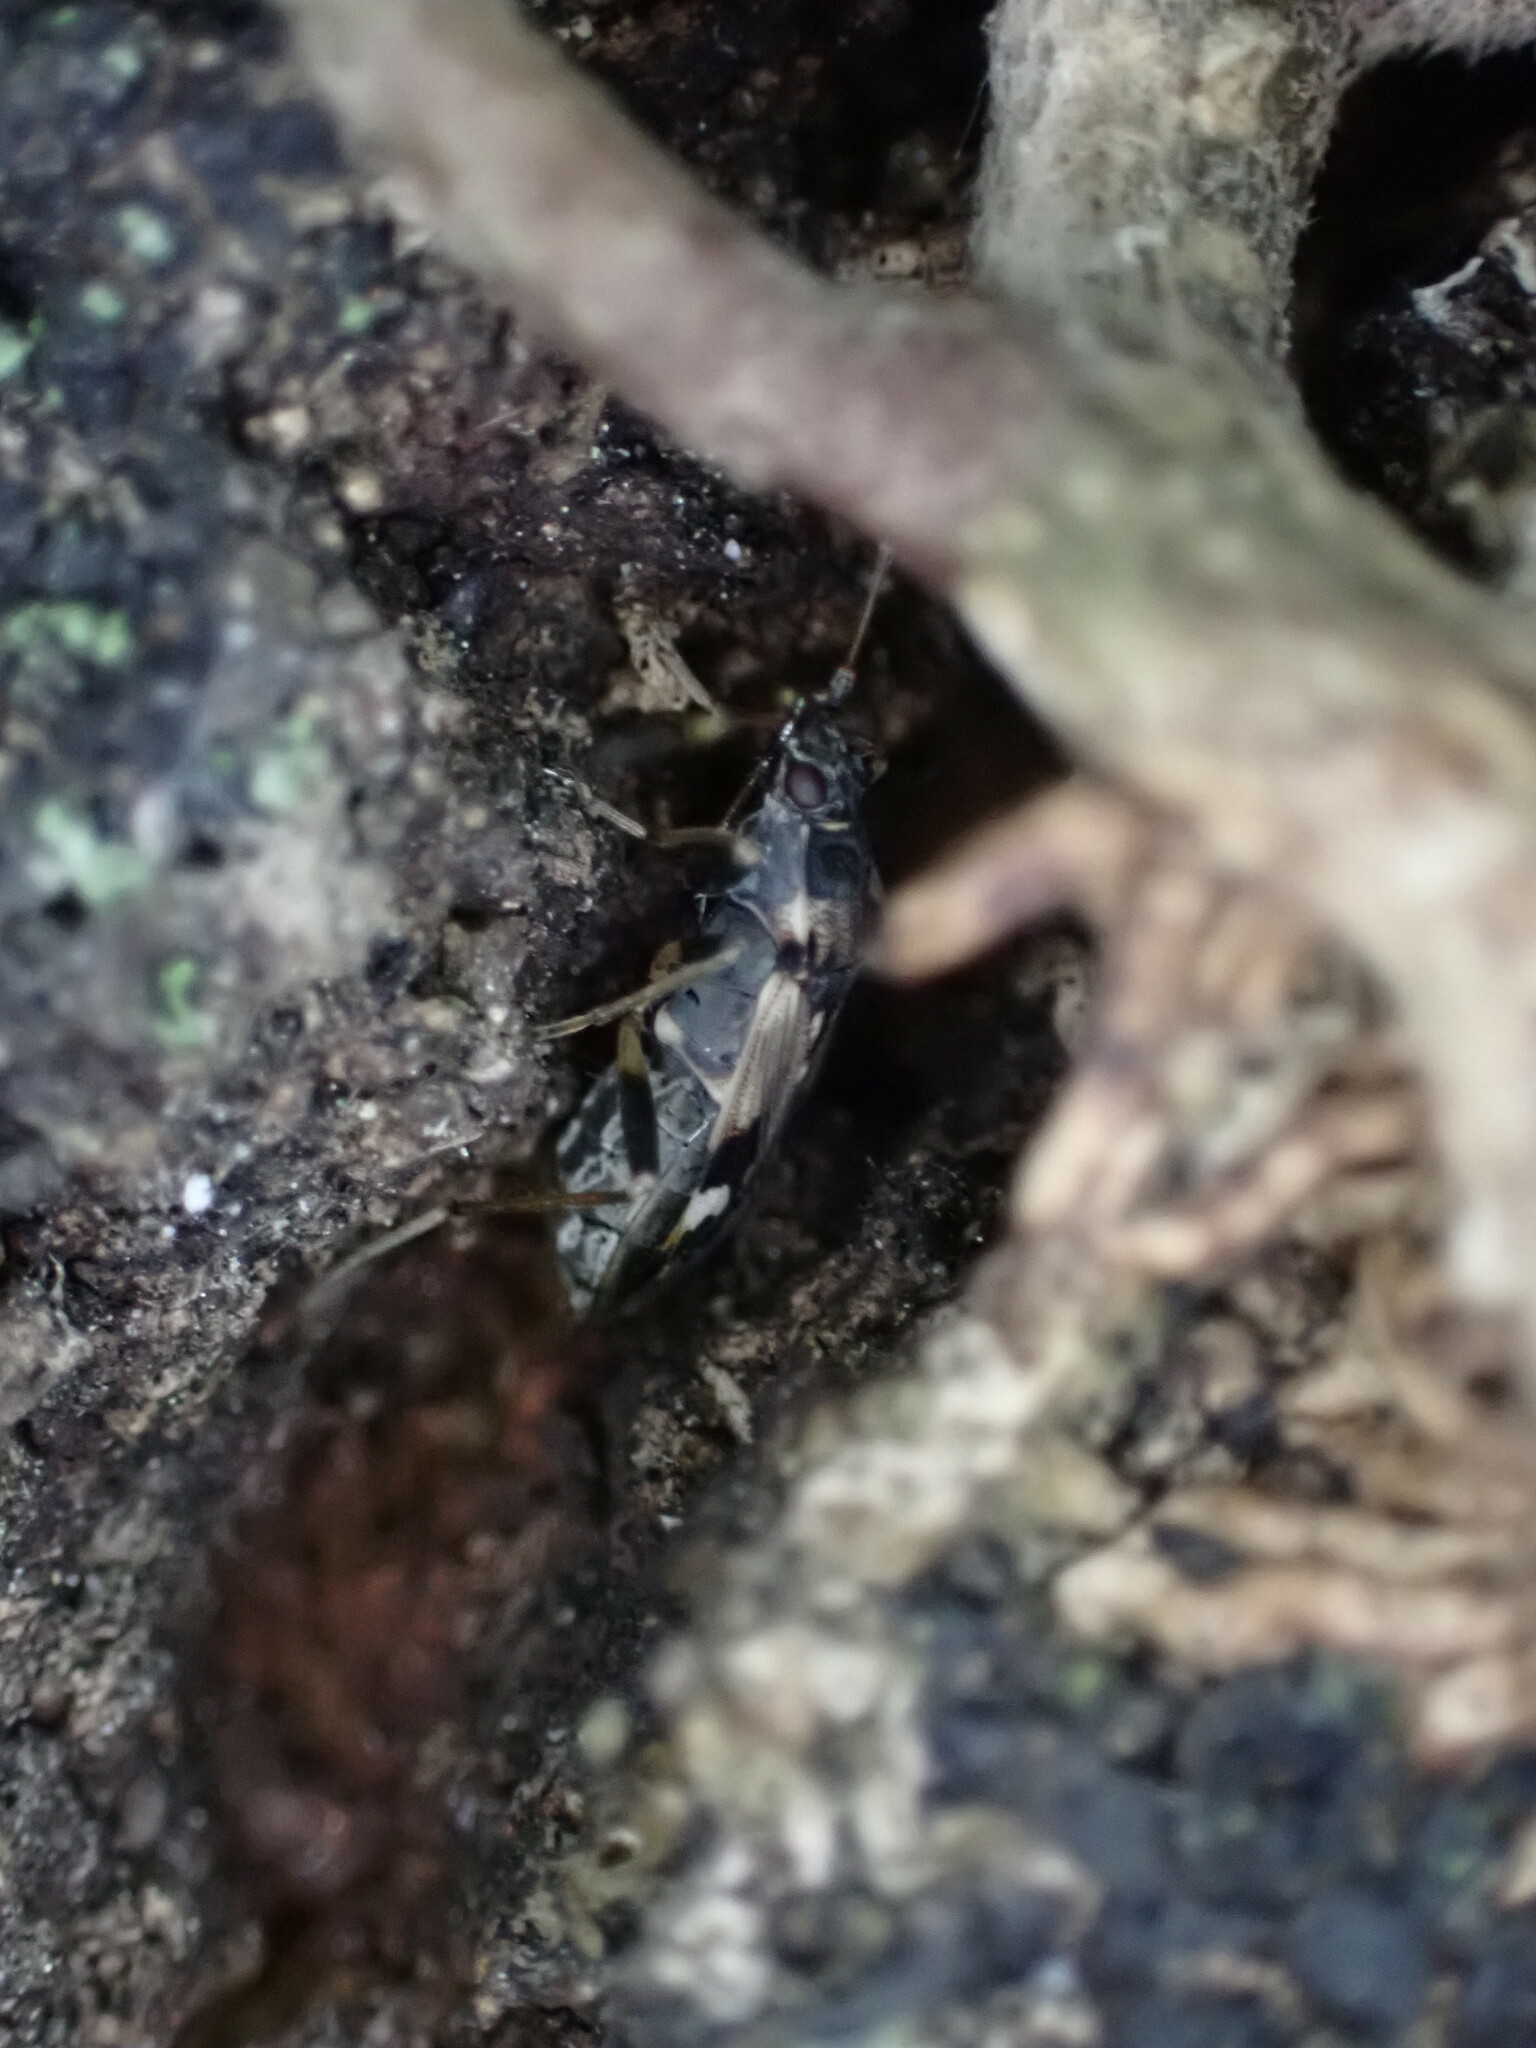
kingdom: Animalia
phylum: Arthropoda
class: Insecta
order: Hemiptera
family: Rhyparochromidae
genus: Beosus
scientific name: Beosus maritimus
